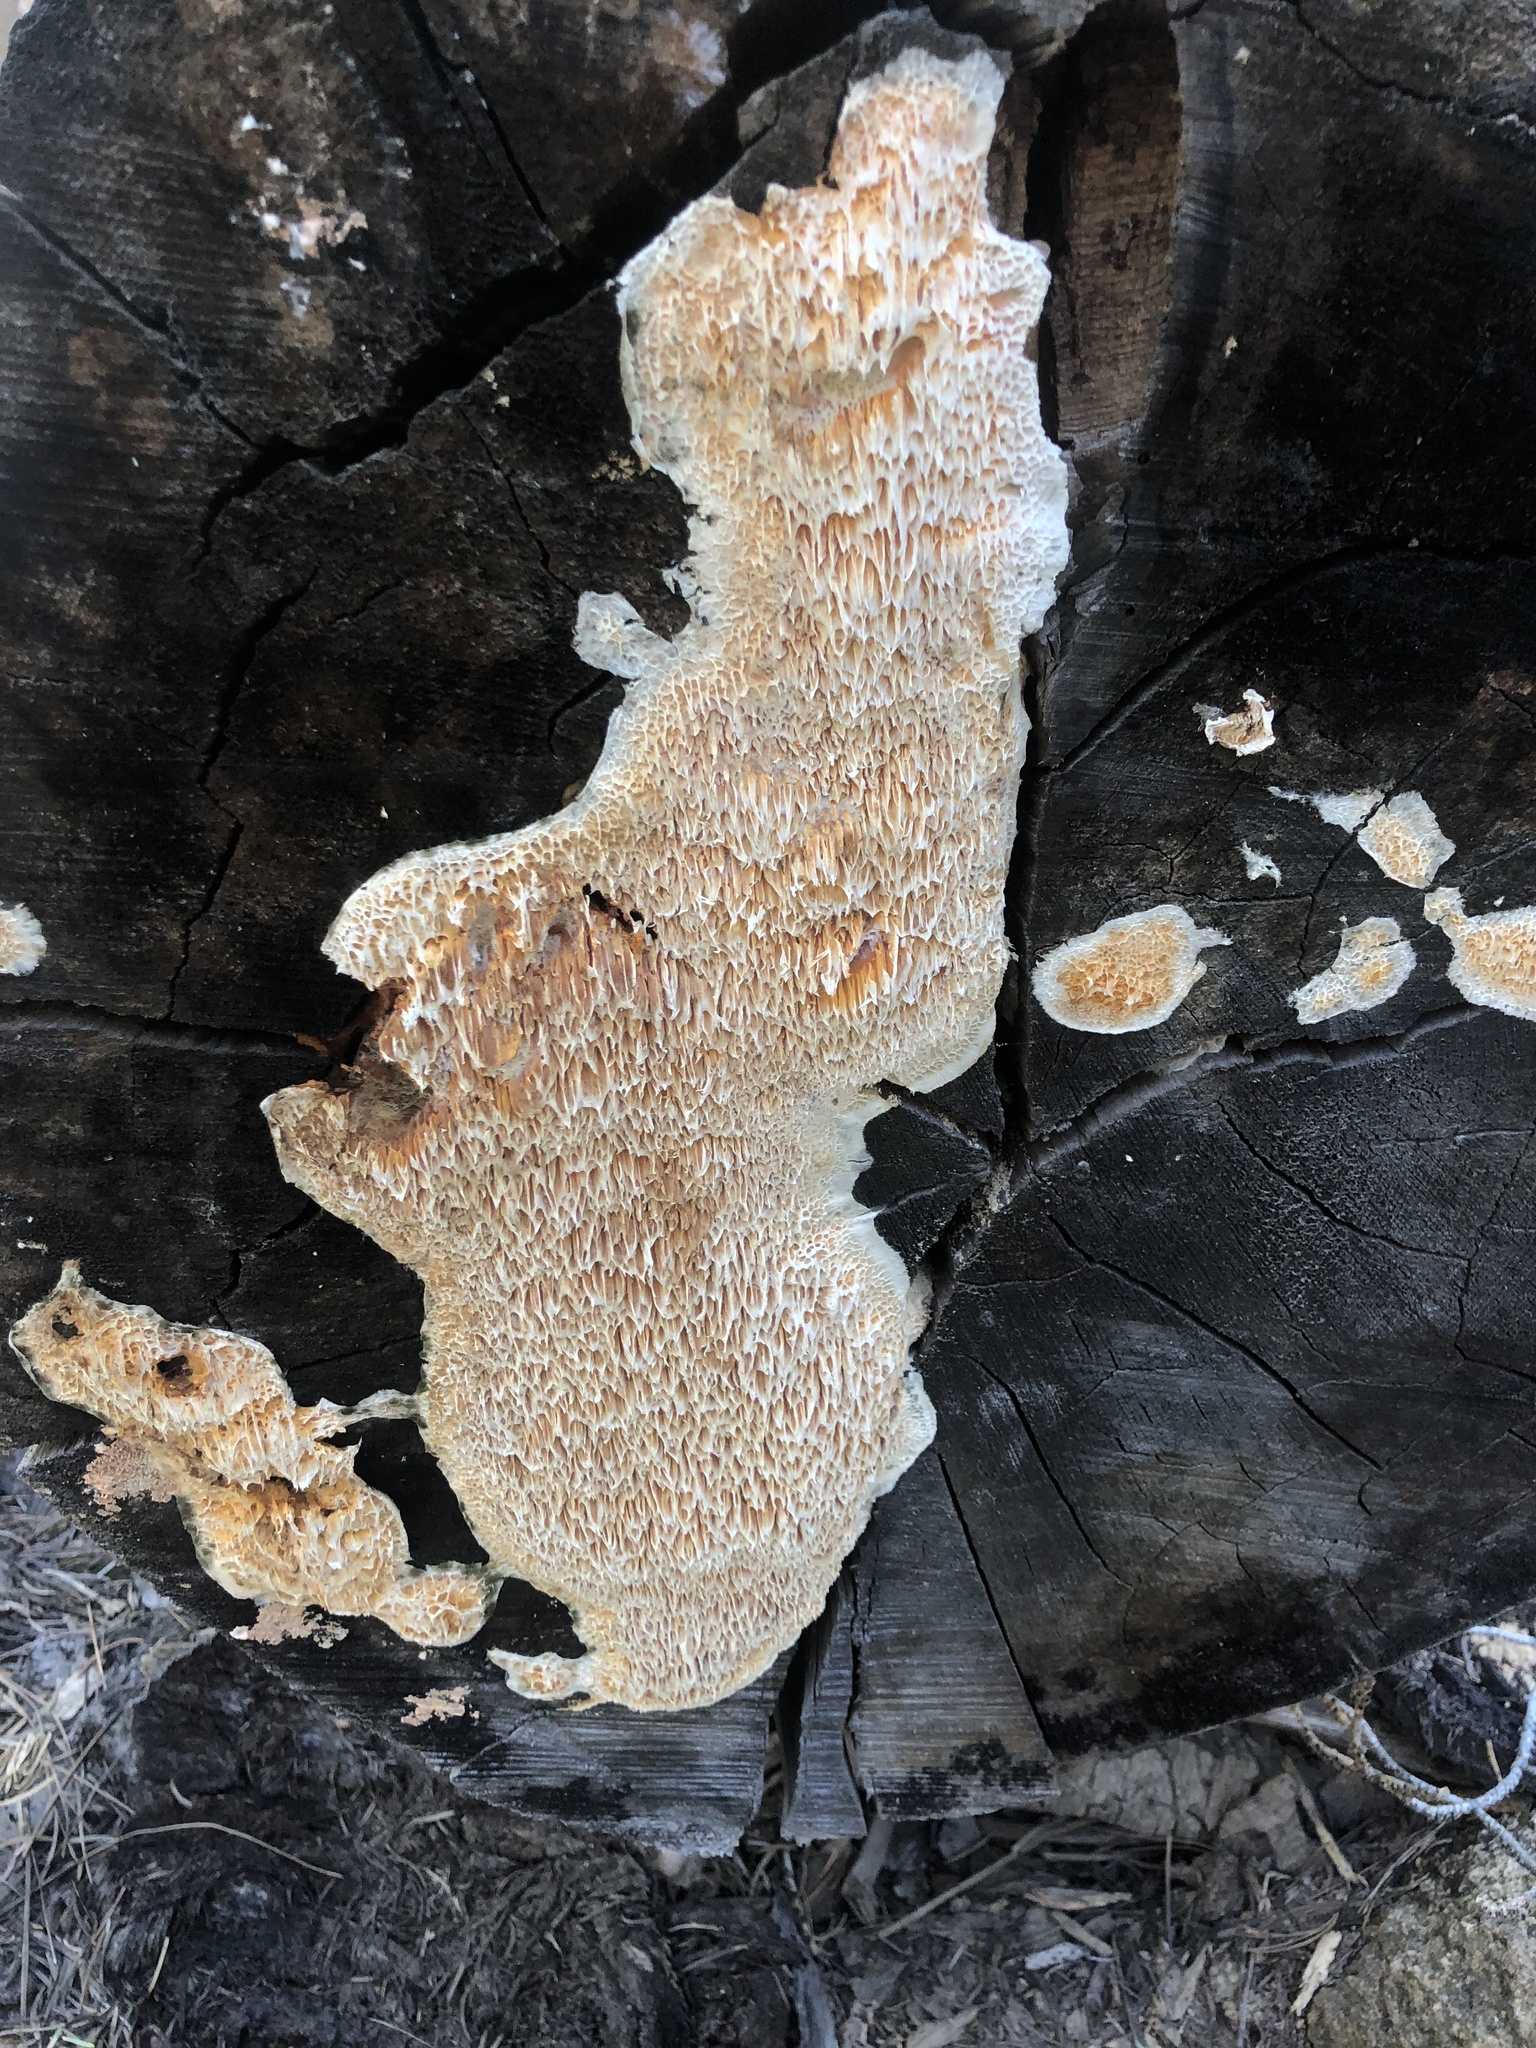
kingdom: Fungi
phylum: Basidiomycota
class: Agaricomycetes
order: Polyporales
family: Pycnoporellaceae
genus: Pycnoporellus
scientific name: Pycnoporellus alboluteus
